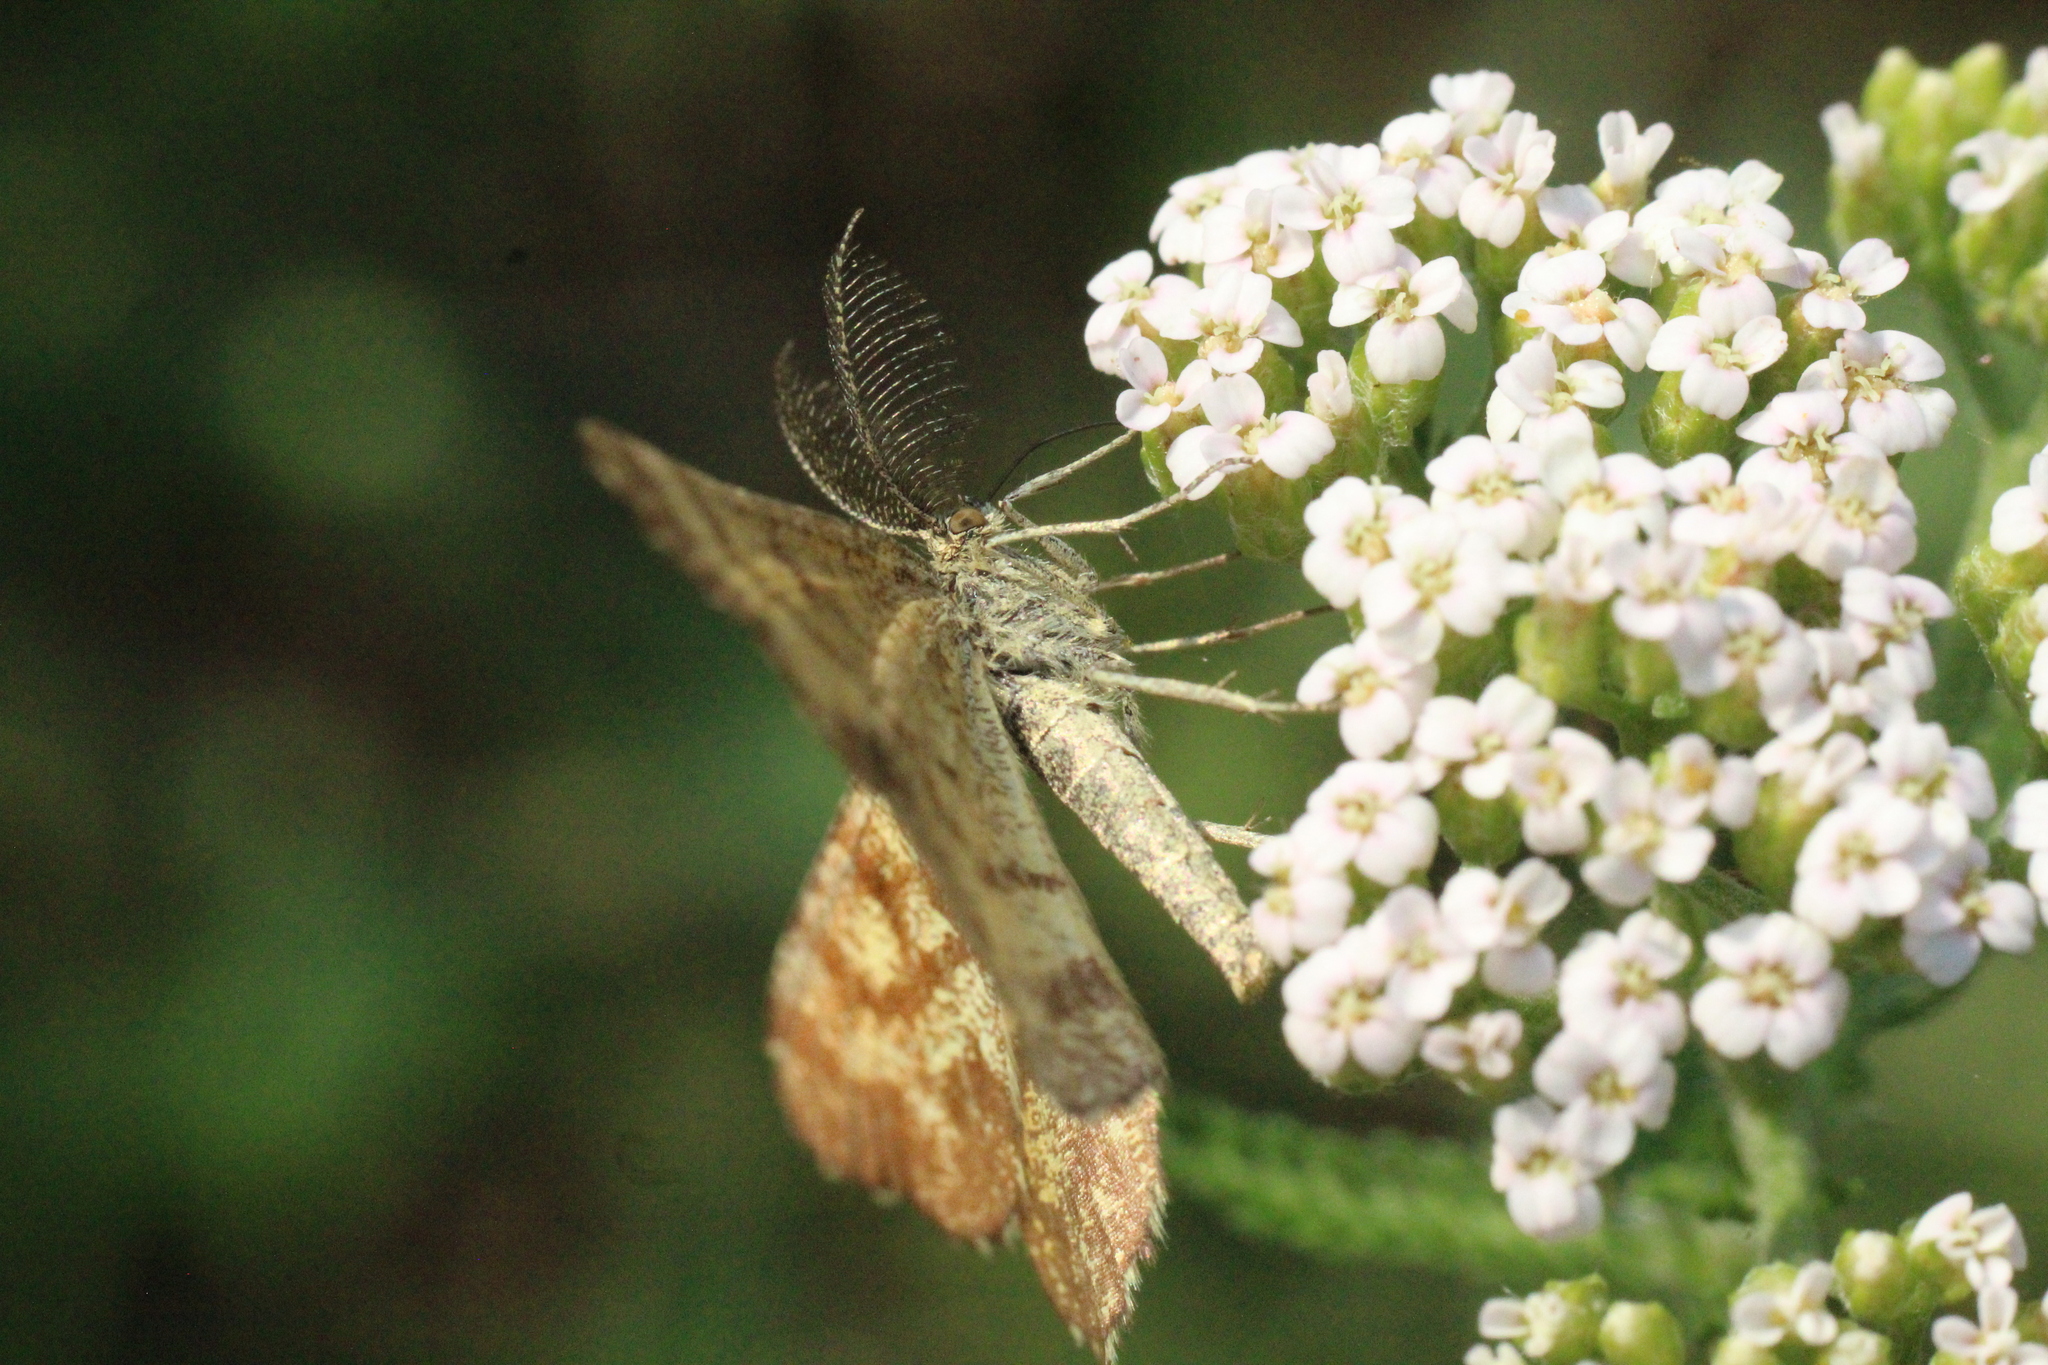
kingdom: Animalia
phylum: Arthropoda
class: Insecta
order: Lepidoptera
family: Geometridae
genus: Ematurga
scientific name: Ematurga atomaria
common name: Common heath
